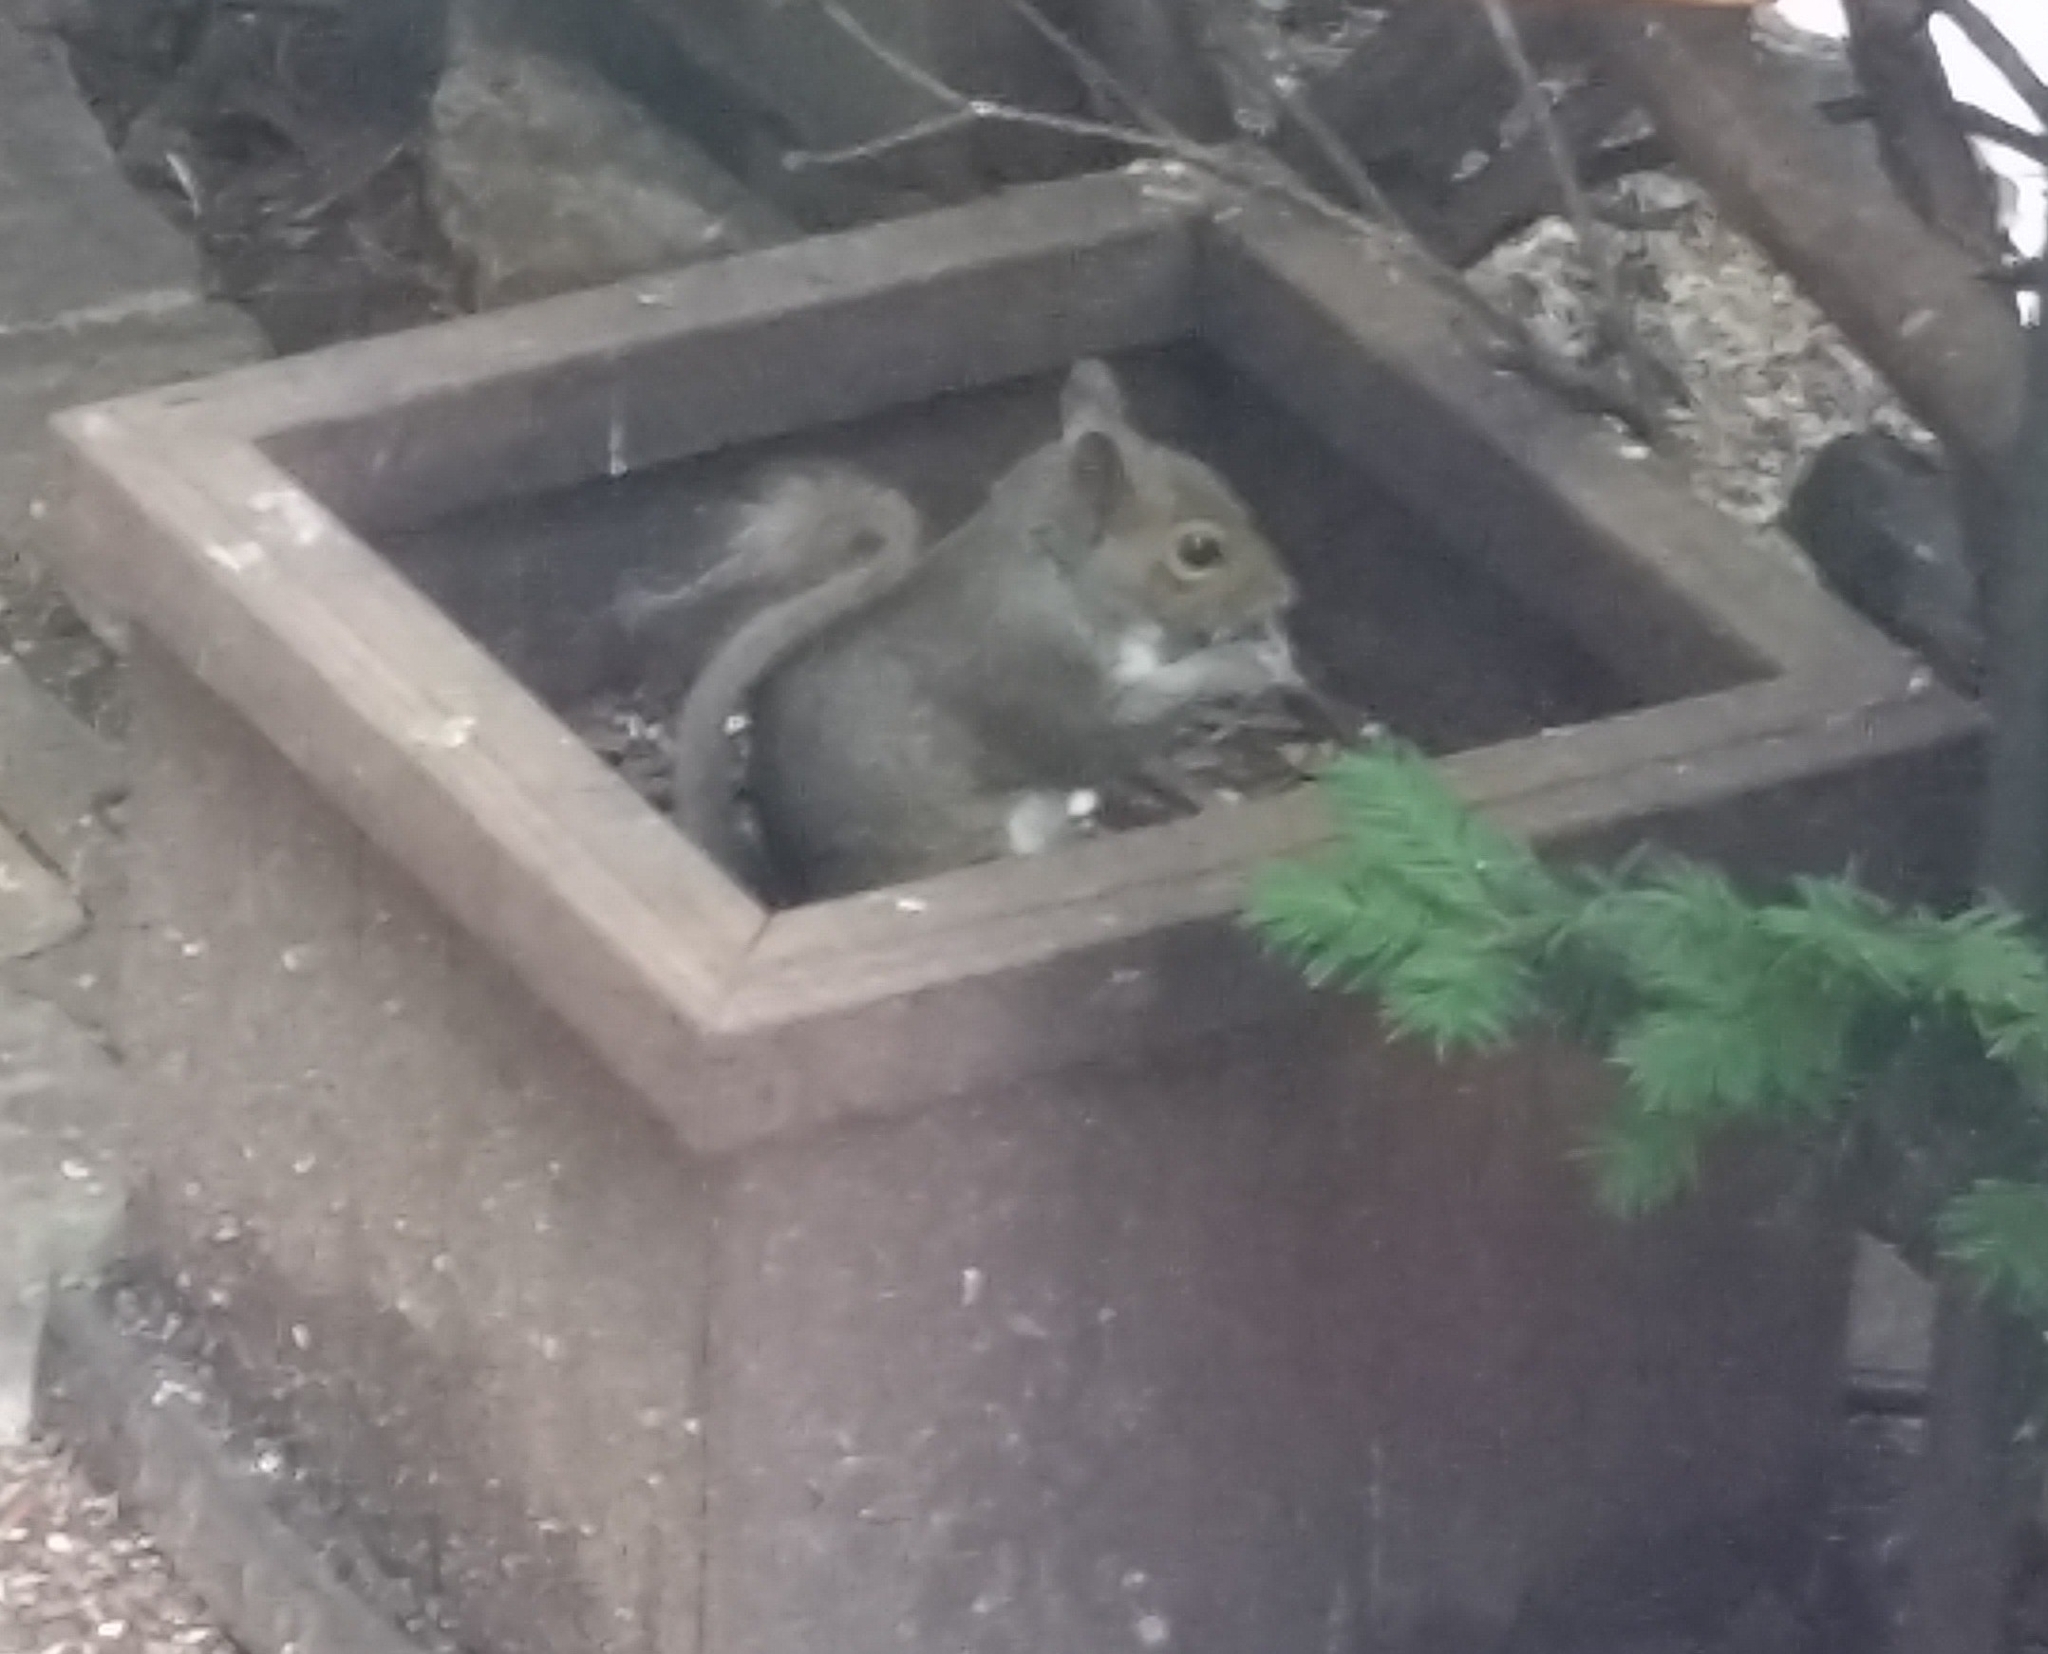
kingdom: Animalia
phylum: Chordata
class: Mammalia
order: Rodentia
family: Sciuridae
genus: Sciurus
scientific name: Sciurus carolinensis
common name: Eastern gray squirrel
